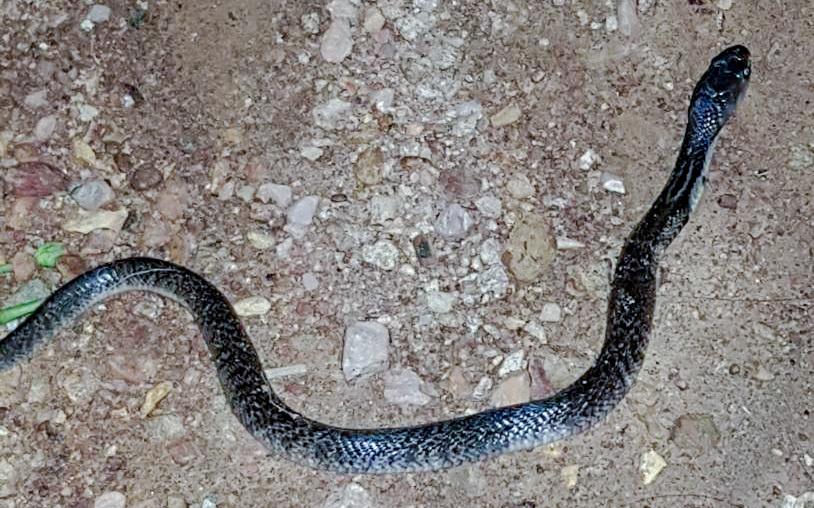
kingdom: Animalia
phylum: Chordata
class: Squamata
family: Elapidae
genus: Naja
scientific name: Naja siamensis
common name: Indo-chinese spitting cobra
